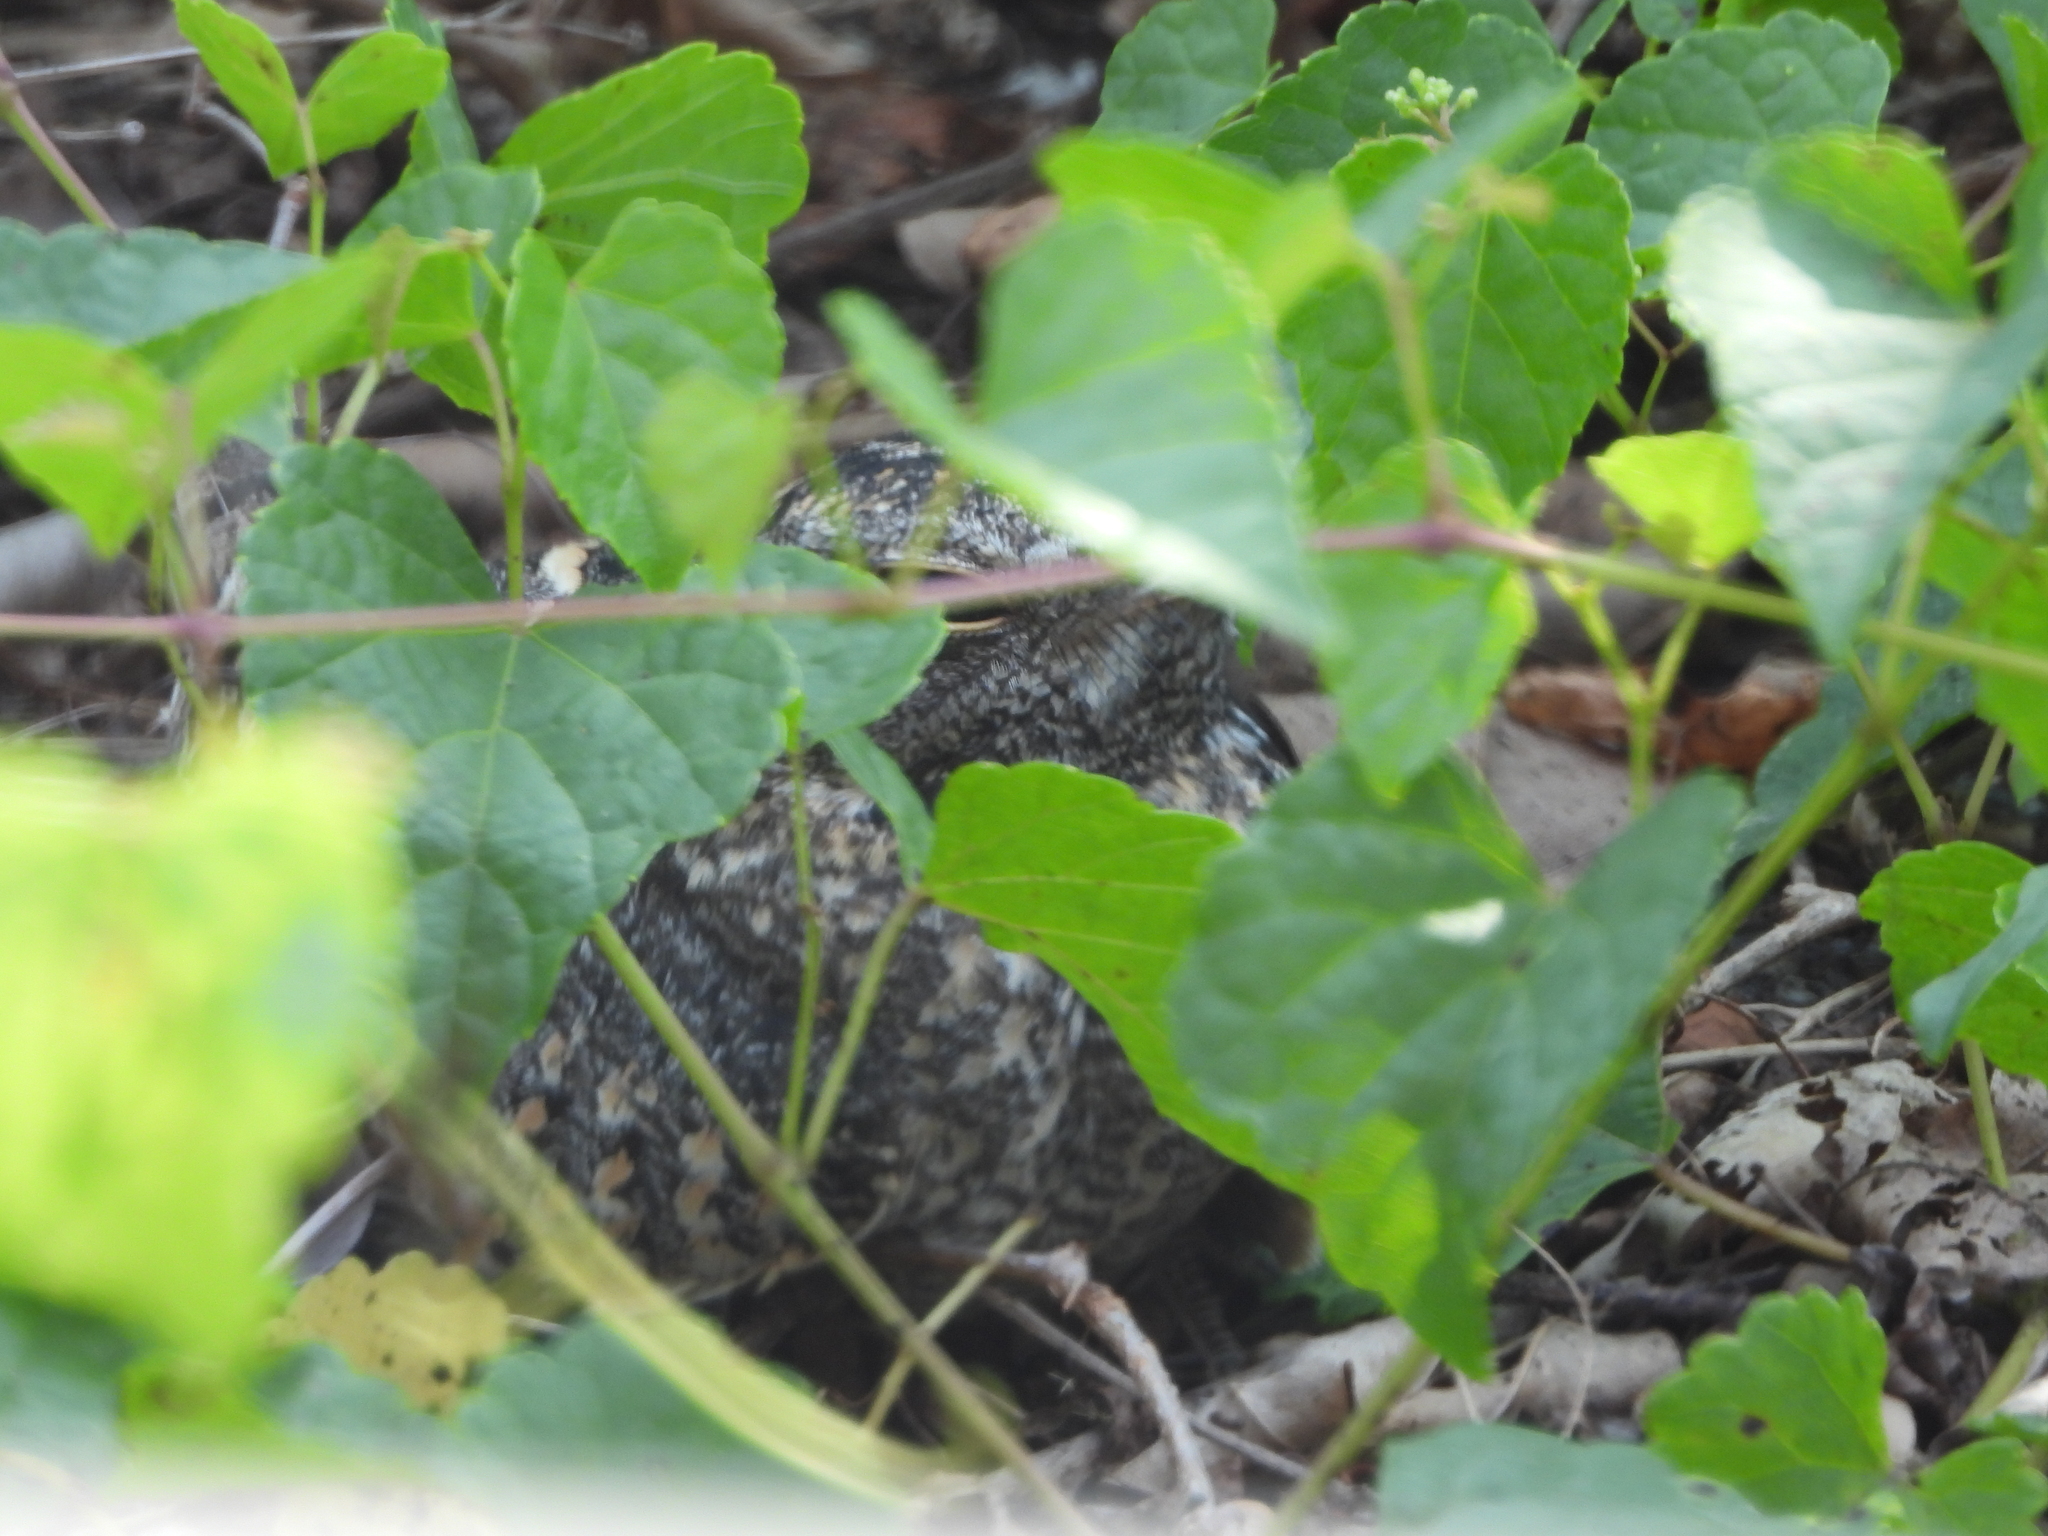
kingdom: Animalia
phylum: Chordata
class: Aves
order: Caprimulgiformes
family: Caprimulgidae
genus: Caprimulgus
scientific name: Caprimulgus affinis
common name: Savanna nightjar
